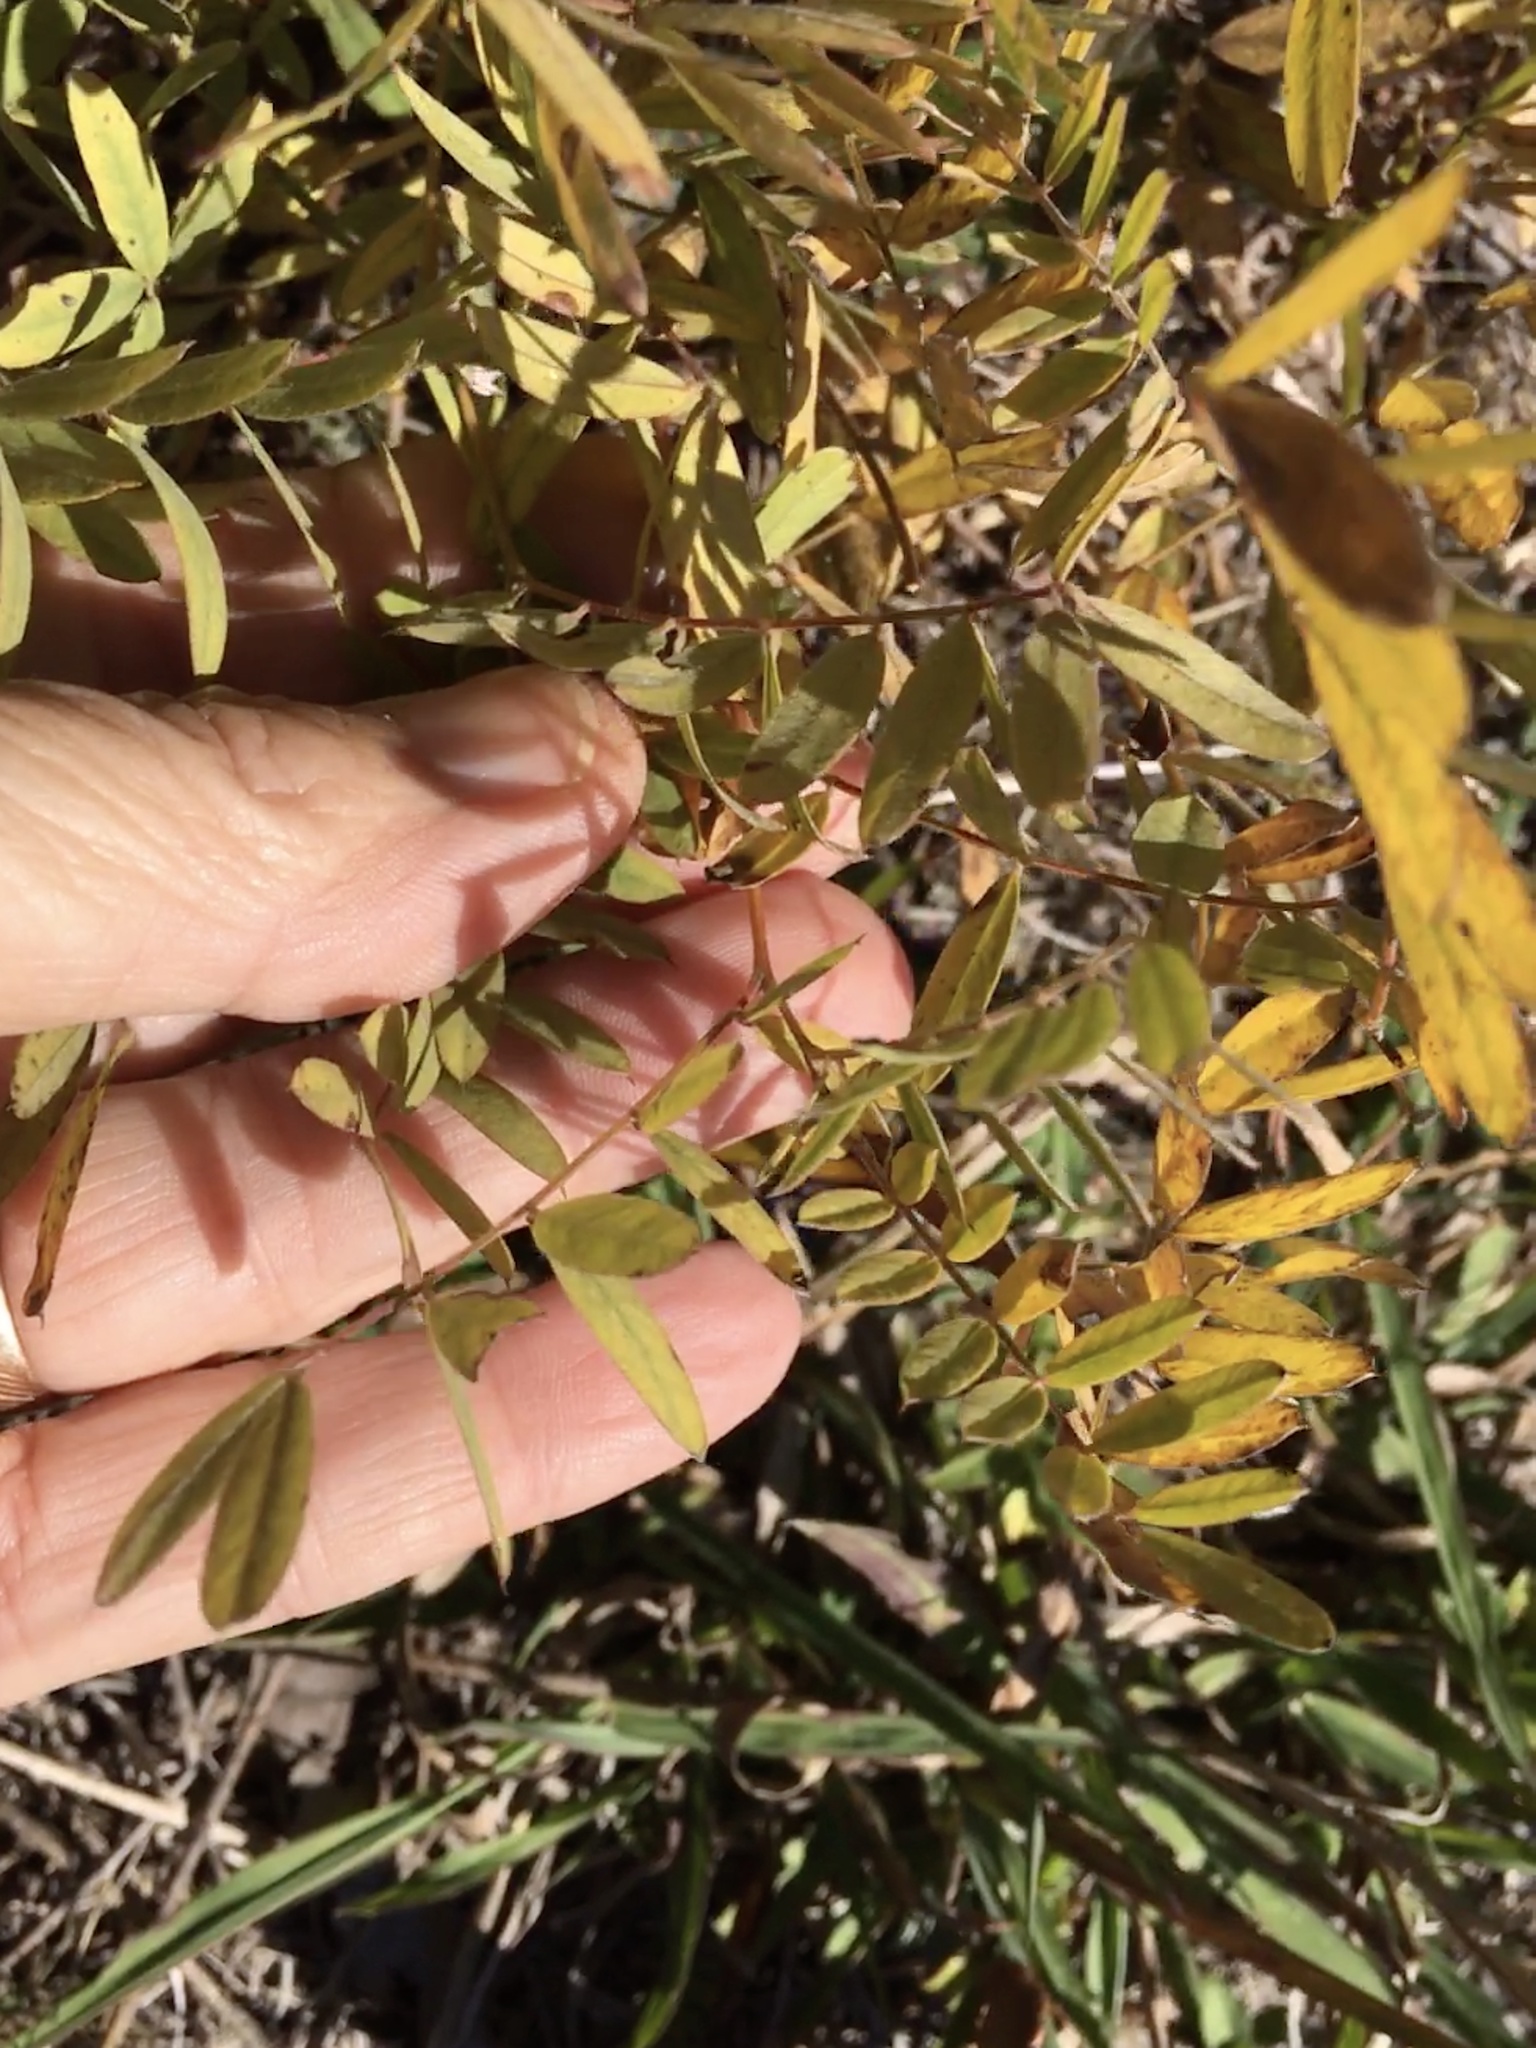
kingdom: Plantae
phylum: Tracheophyta
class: Magnoliopsida
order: Fabales
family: Fabaceae
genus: Tephrosia
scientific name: Tephrosia virginiana
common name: Rabbit-pea
